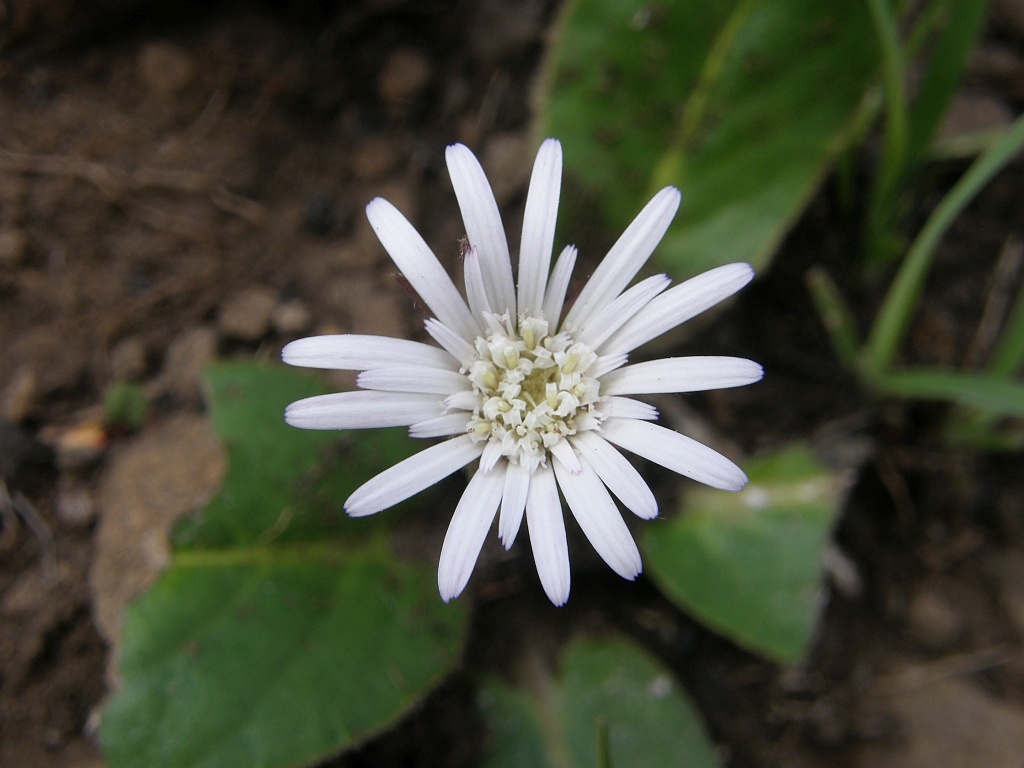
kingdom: Plantae
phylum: Tracheophyta
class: Magnoliopsida
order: Asterales
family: Asteraceae
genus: Piloselloides
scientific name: Piloselloides hirsuta
